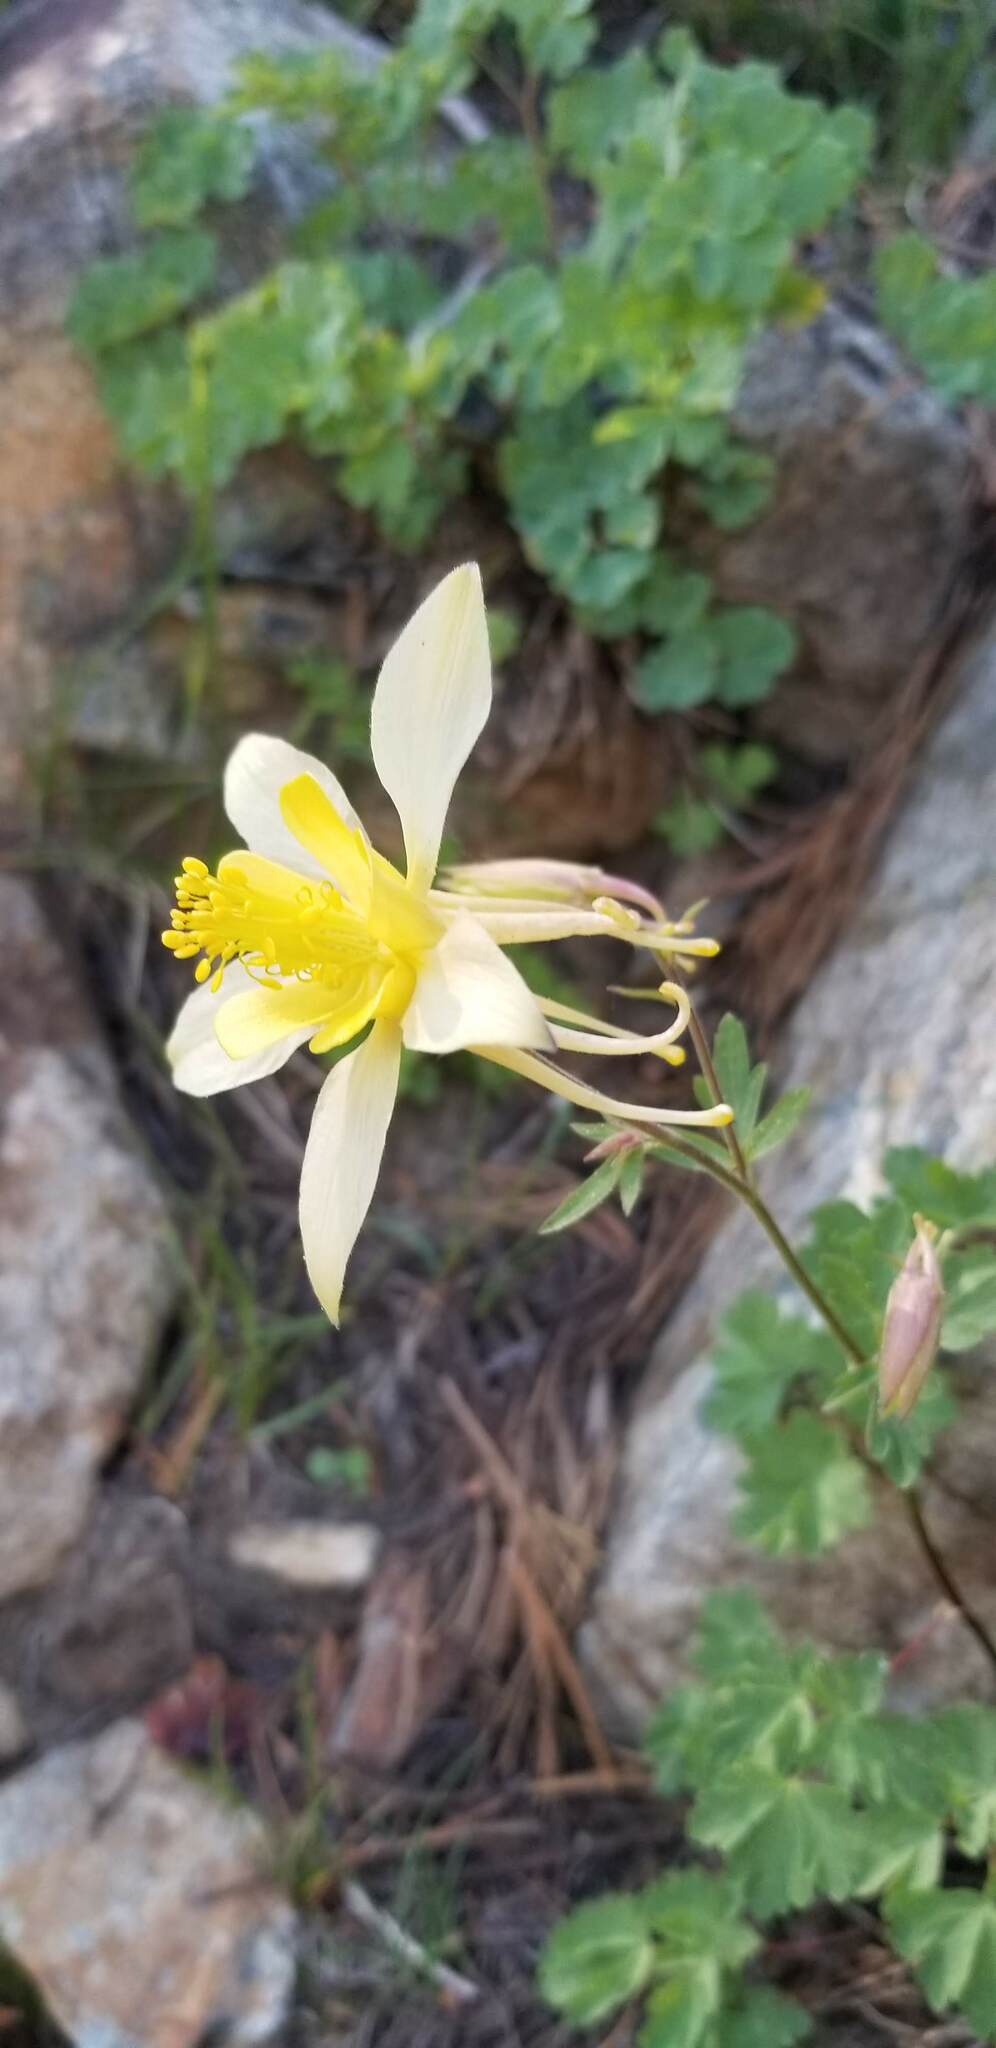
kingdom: Plantae
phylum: Tracheophyta
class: Magnoliopsida
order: Ranunculales
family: Ranunculaceae
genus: Aquilegia
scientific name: Aquilegia pubescens
